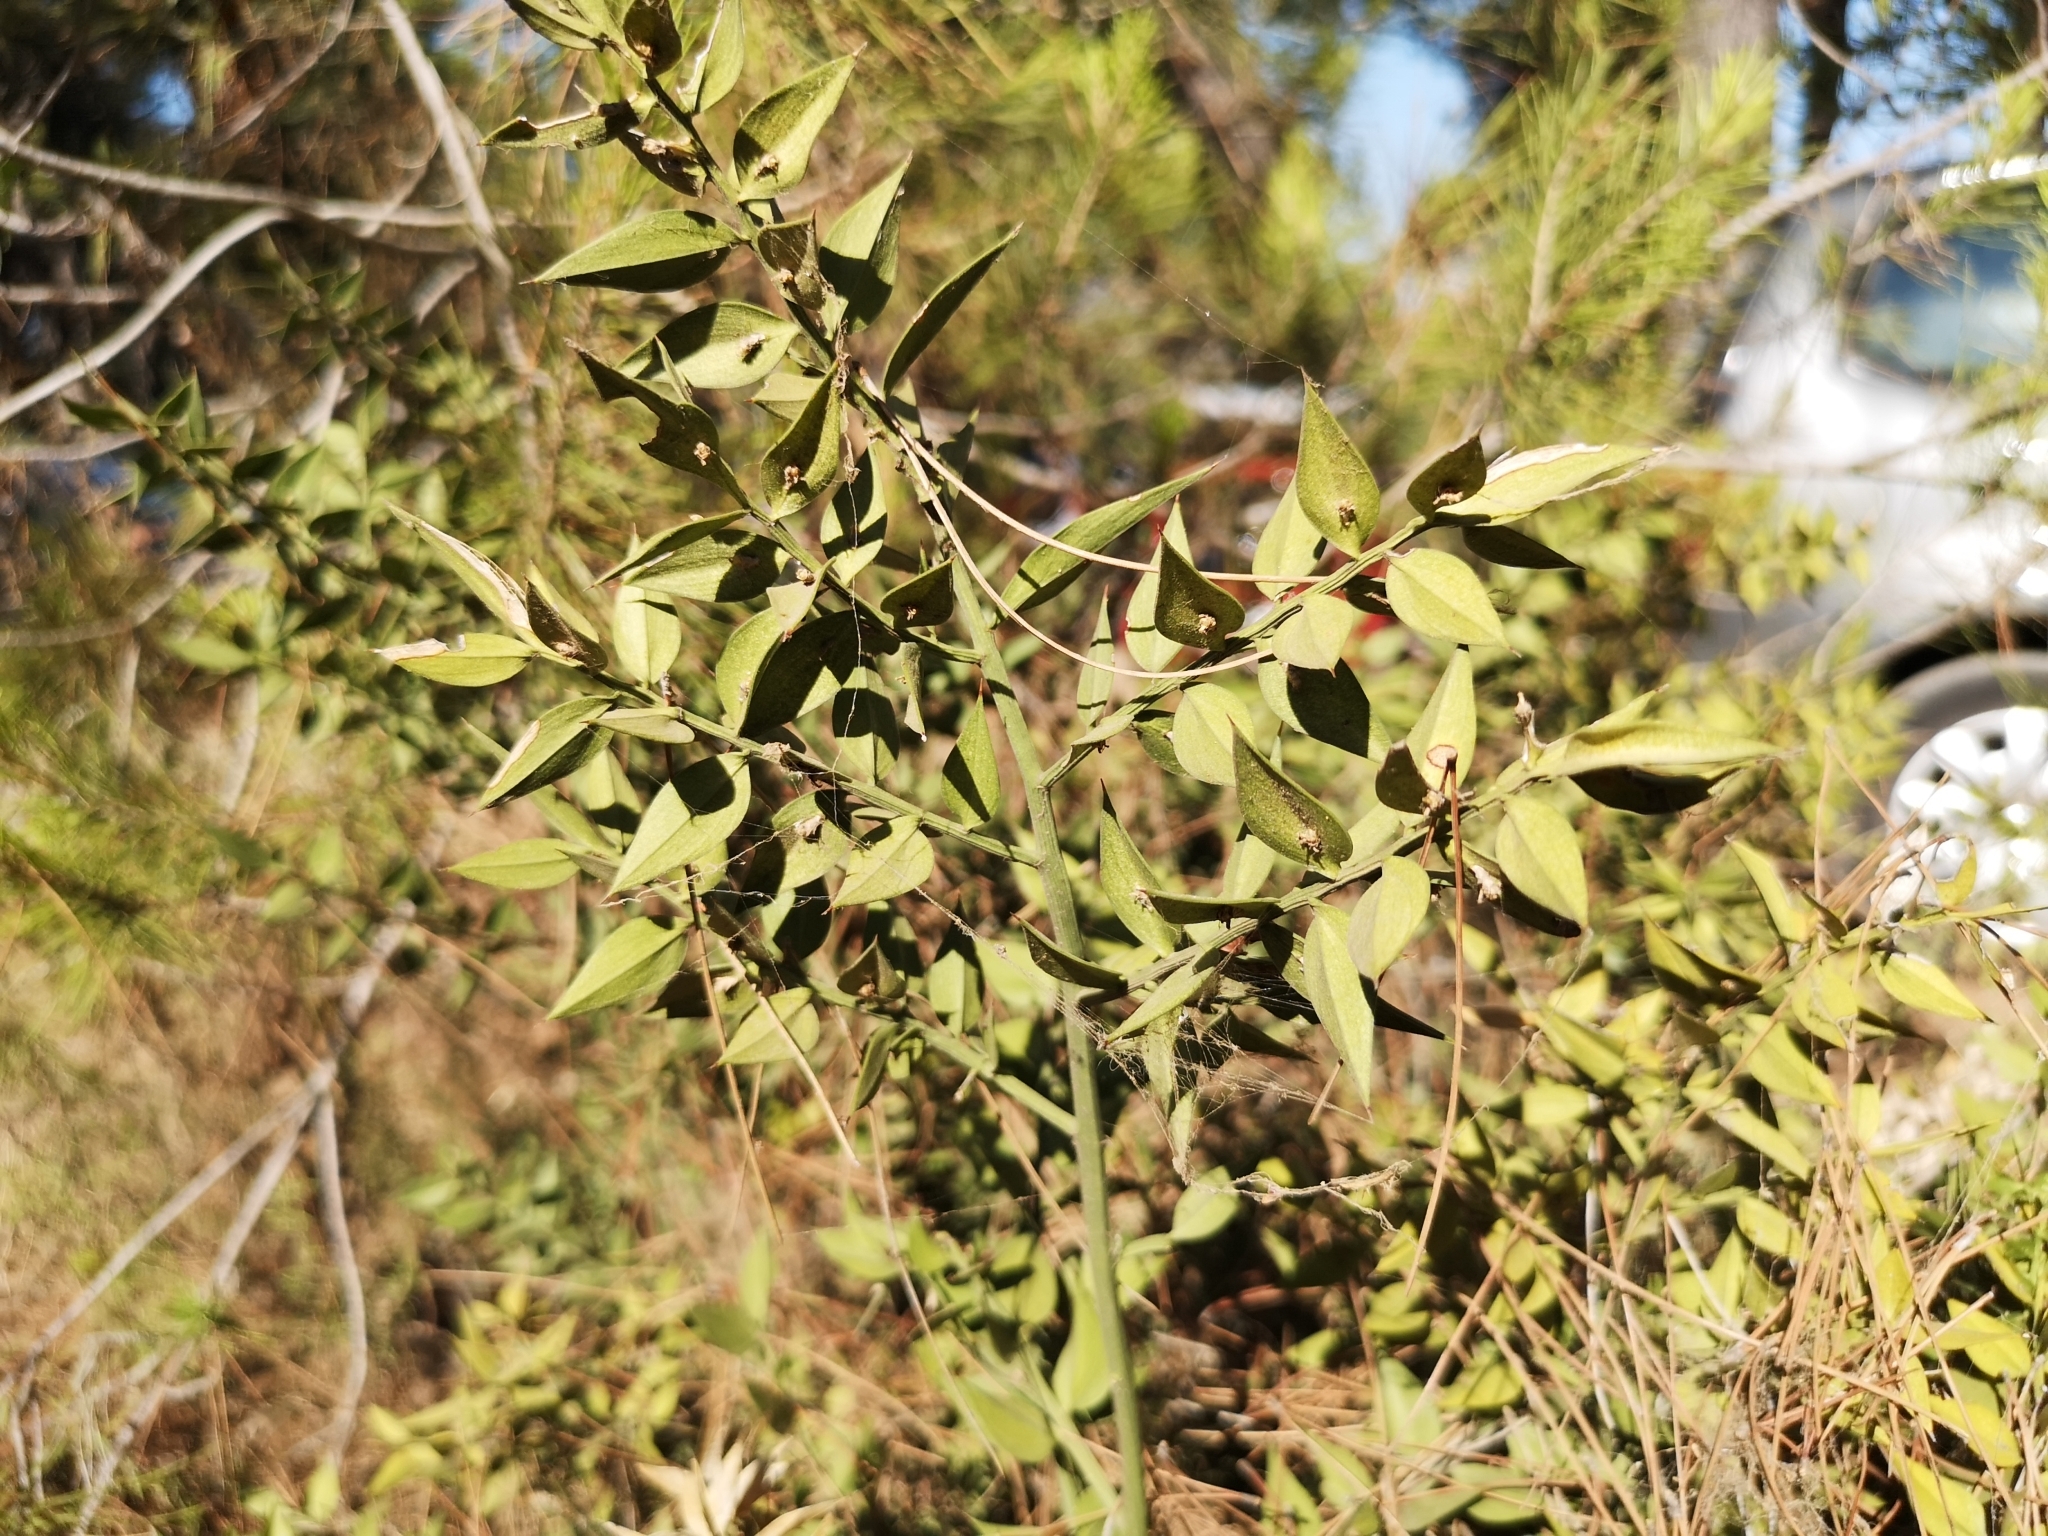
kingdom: Plantae
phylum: Tracheophyta
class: Liliopsida
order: Asparagales
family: Asparagaceae
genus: Ruscus
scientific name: Ruscus aculeatus
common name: Butcher's-broom
